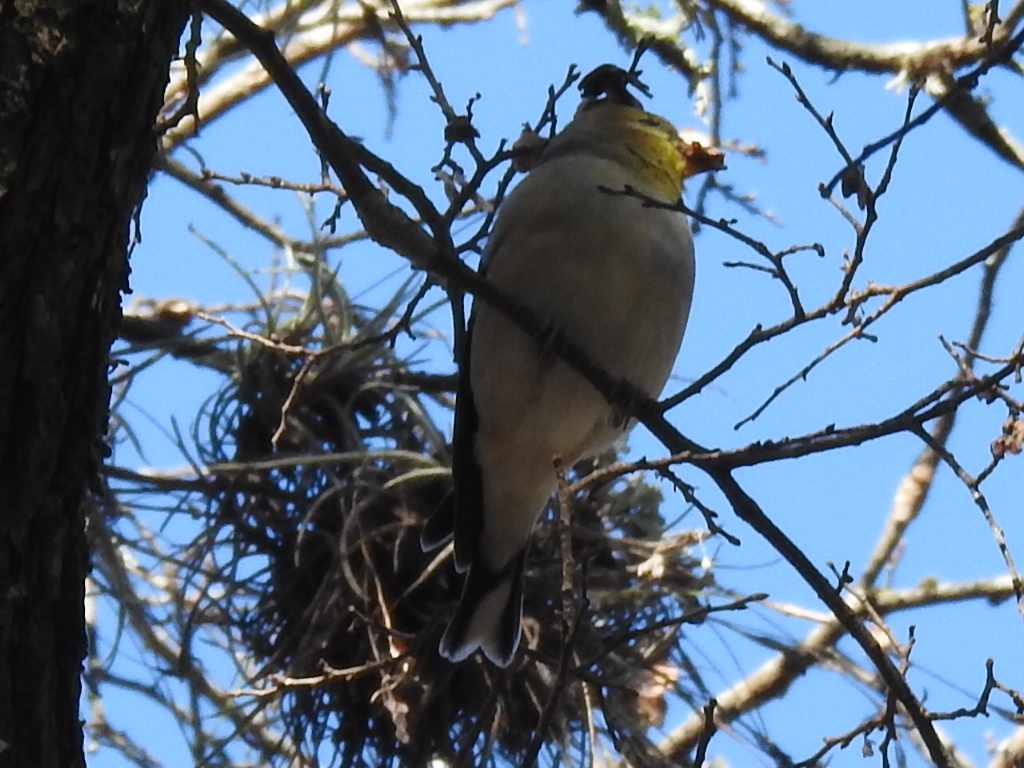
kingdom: Animalia
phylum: Chordata
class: Aves
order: Passeriformes
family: Fringillidae
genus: Spinus
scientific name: Spinus tristis
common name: American goldfinch
